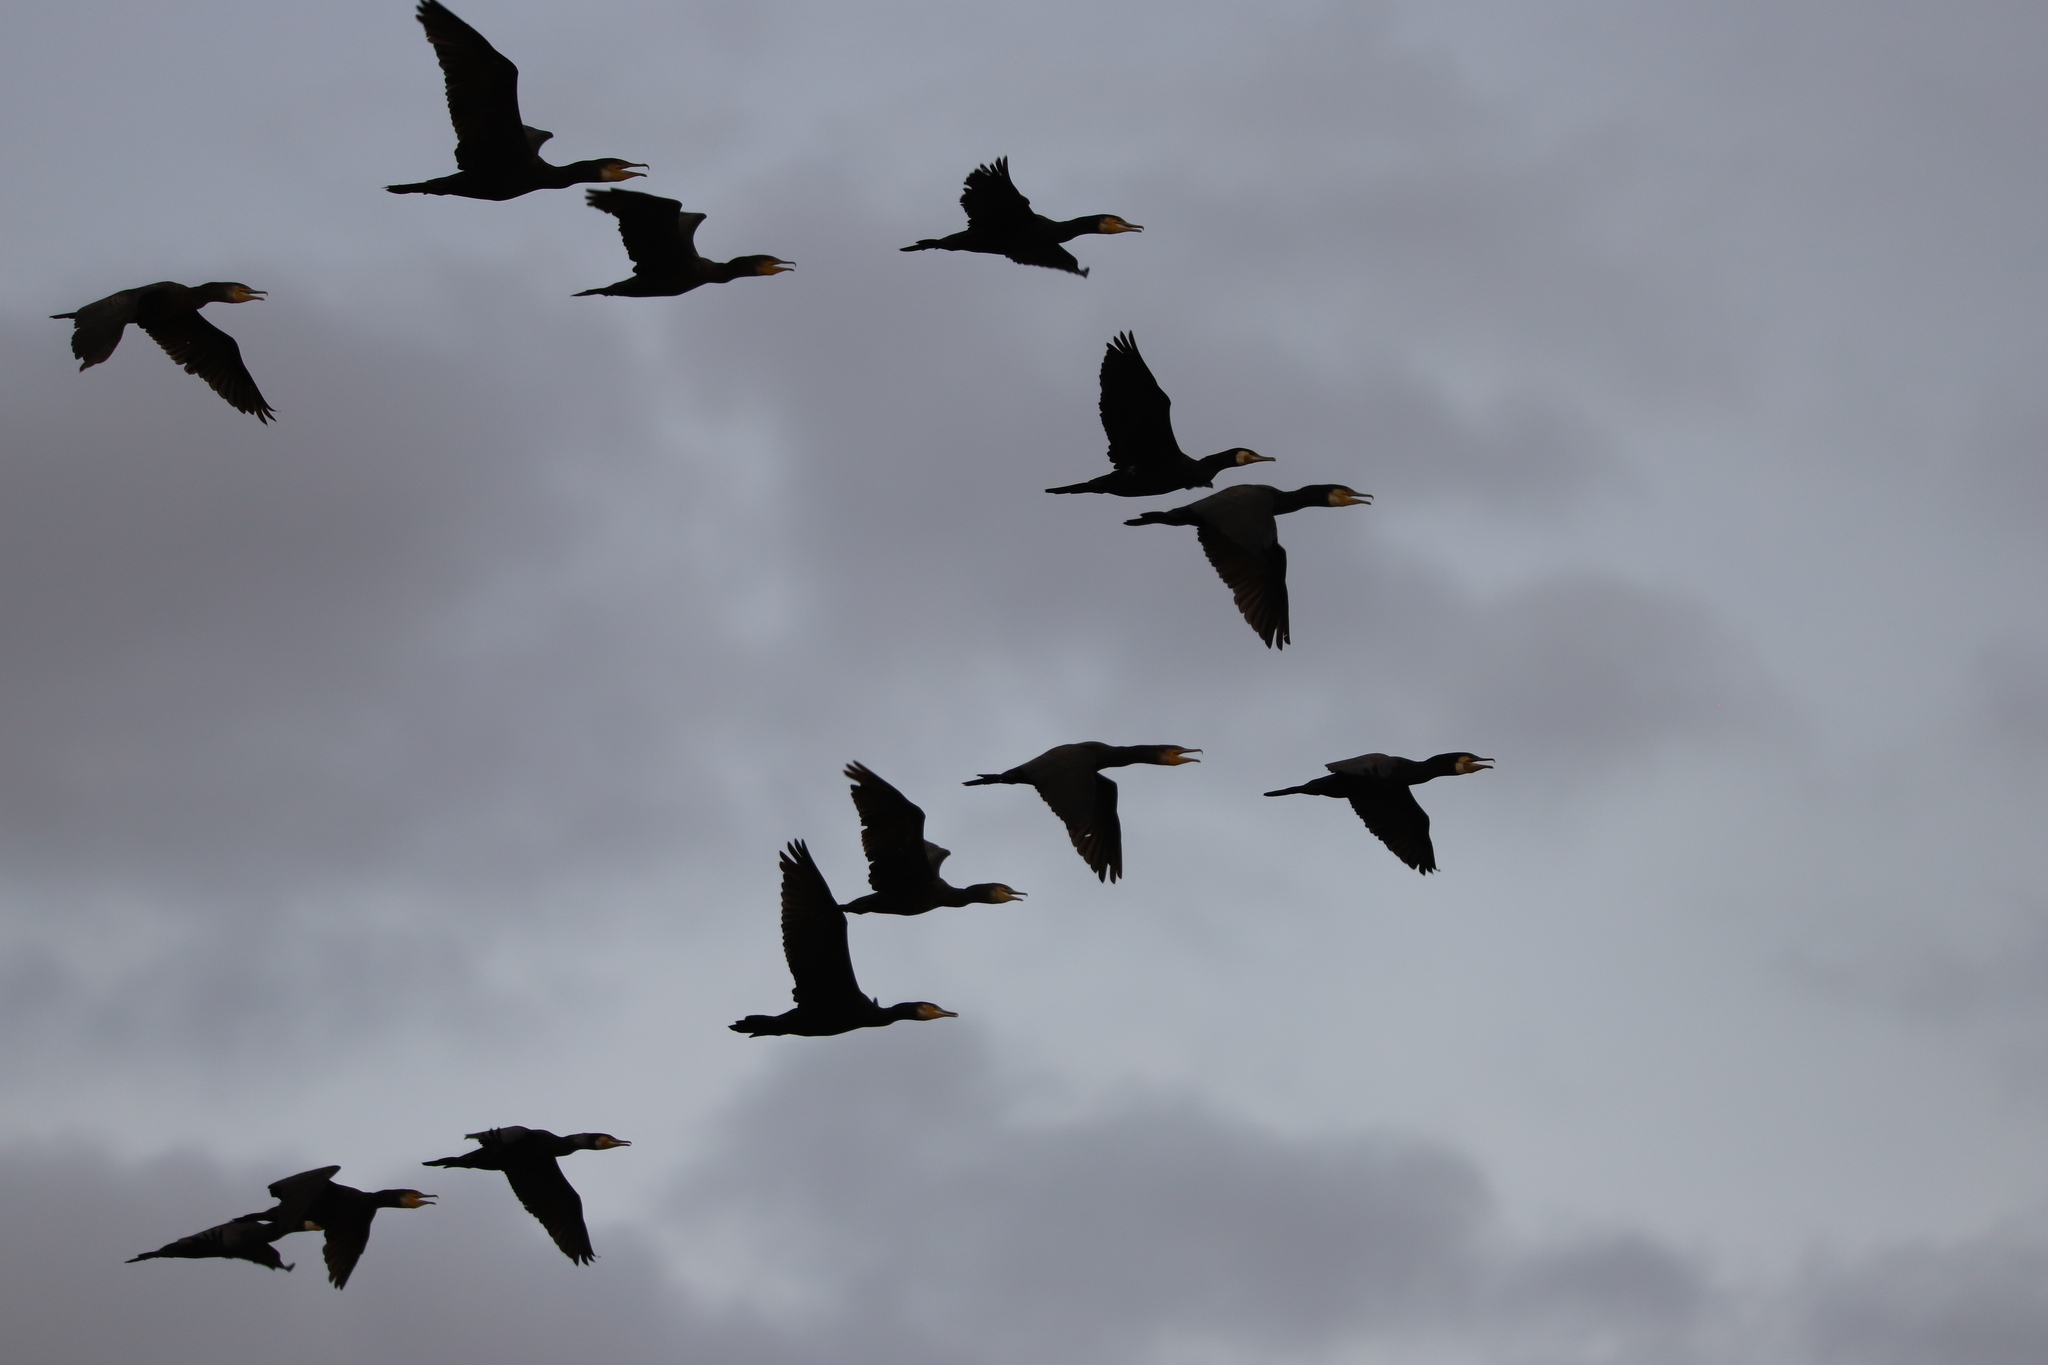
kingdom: Animalia
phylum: Chordata
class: Aves
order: Suliformes
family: Phalacrocoracidae
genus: Phalacrocorax
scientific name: Phalacrocorax carbo
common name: Great cormorant
